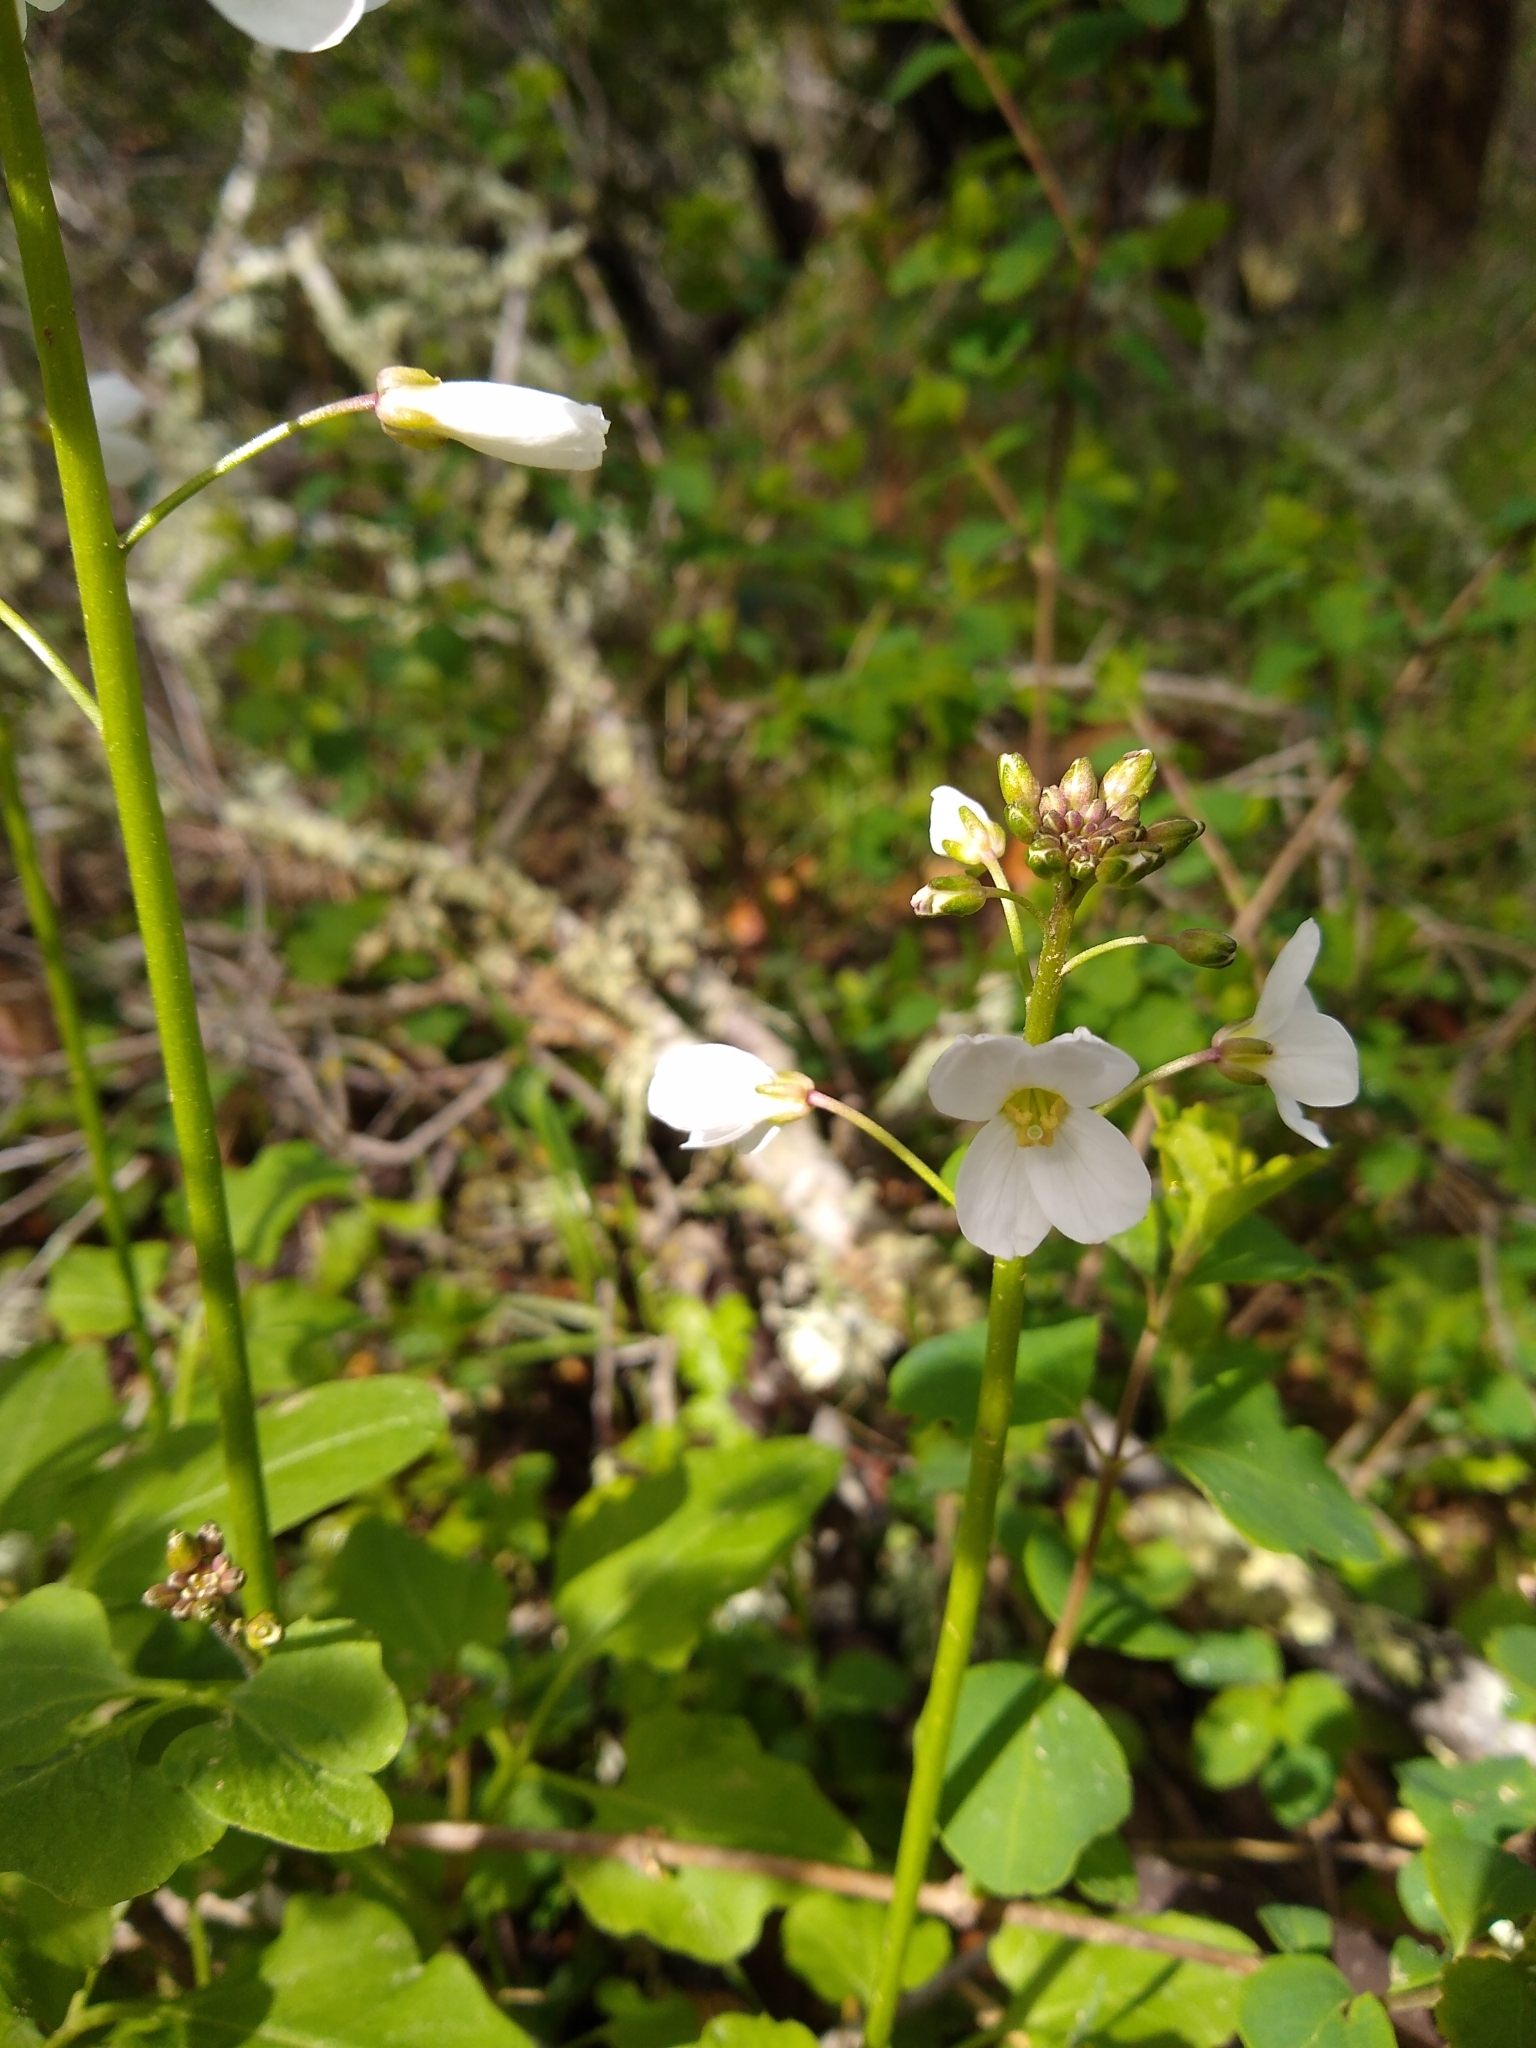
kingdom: Plantae
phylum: Tracheophyta
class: Magnoliopsida
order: Brassicales
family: Brassicaceae
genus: Cardamine
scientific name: Cardamine californica
